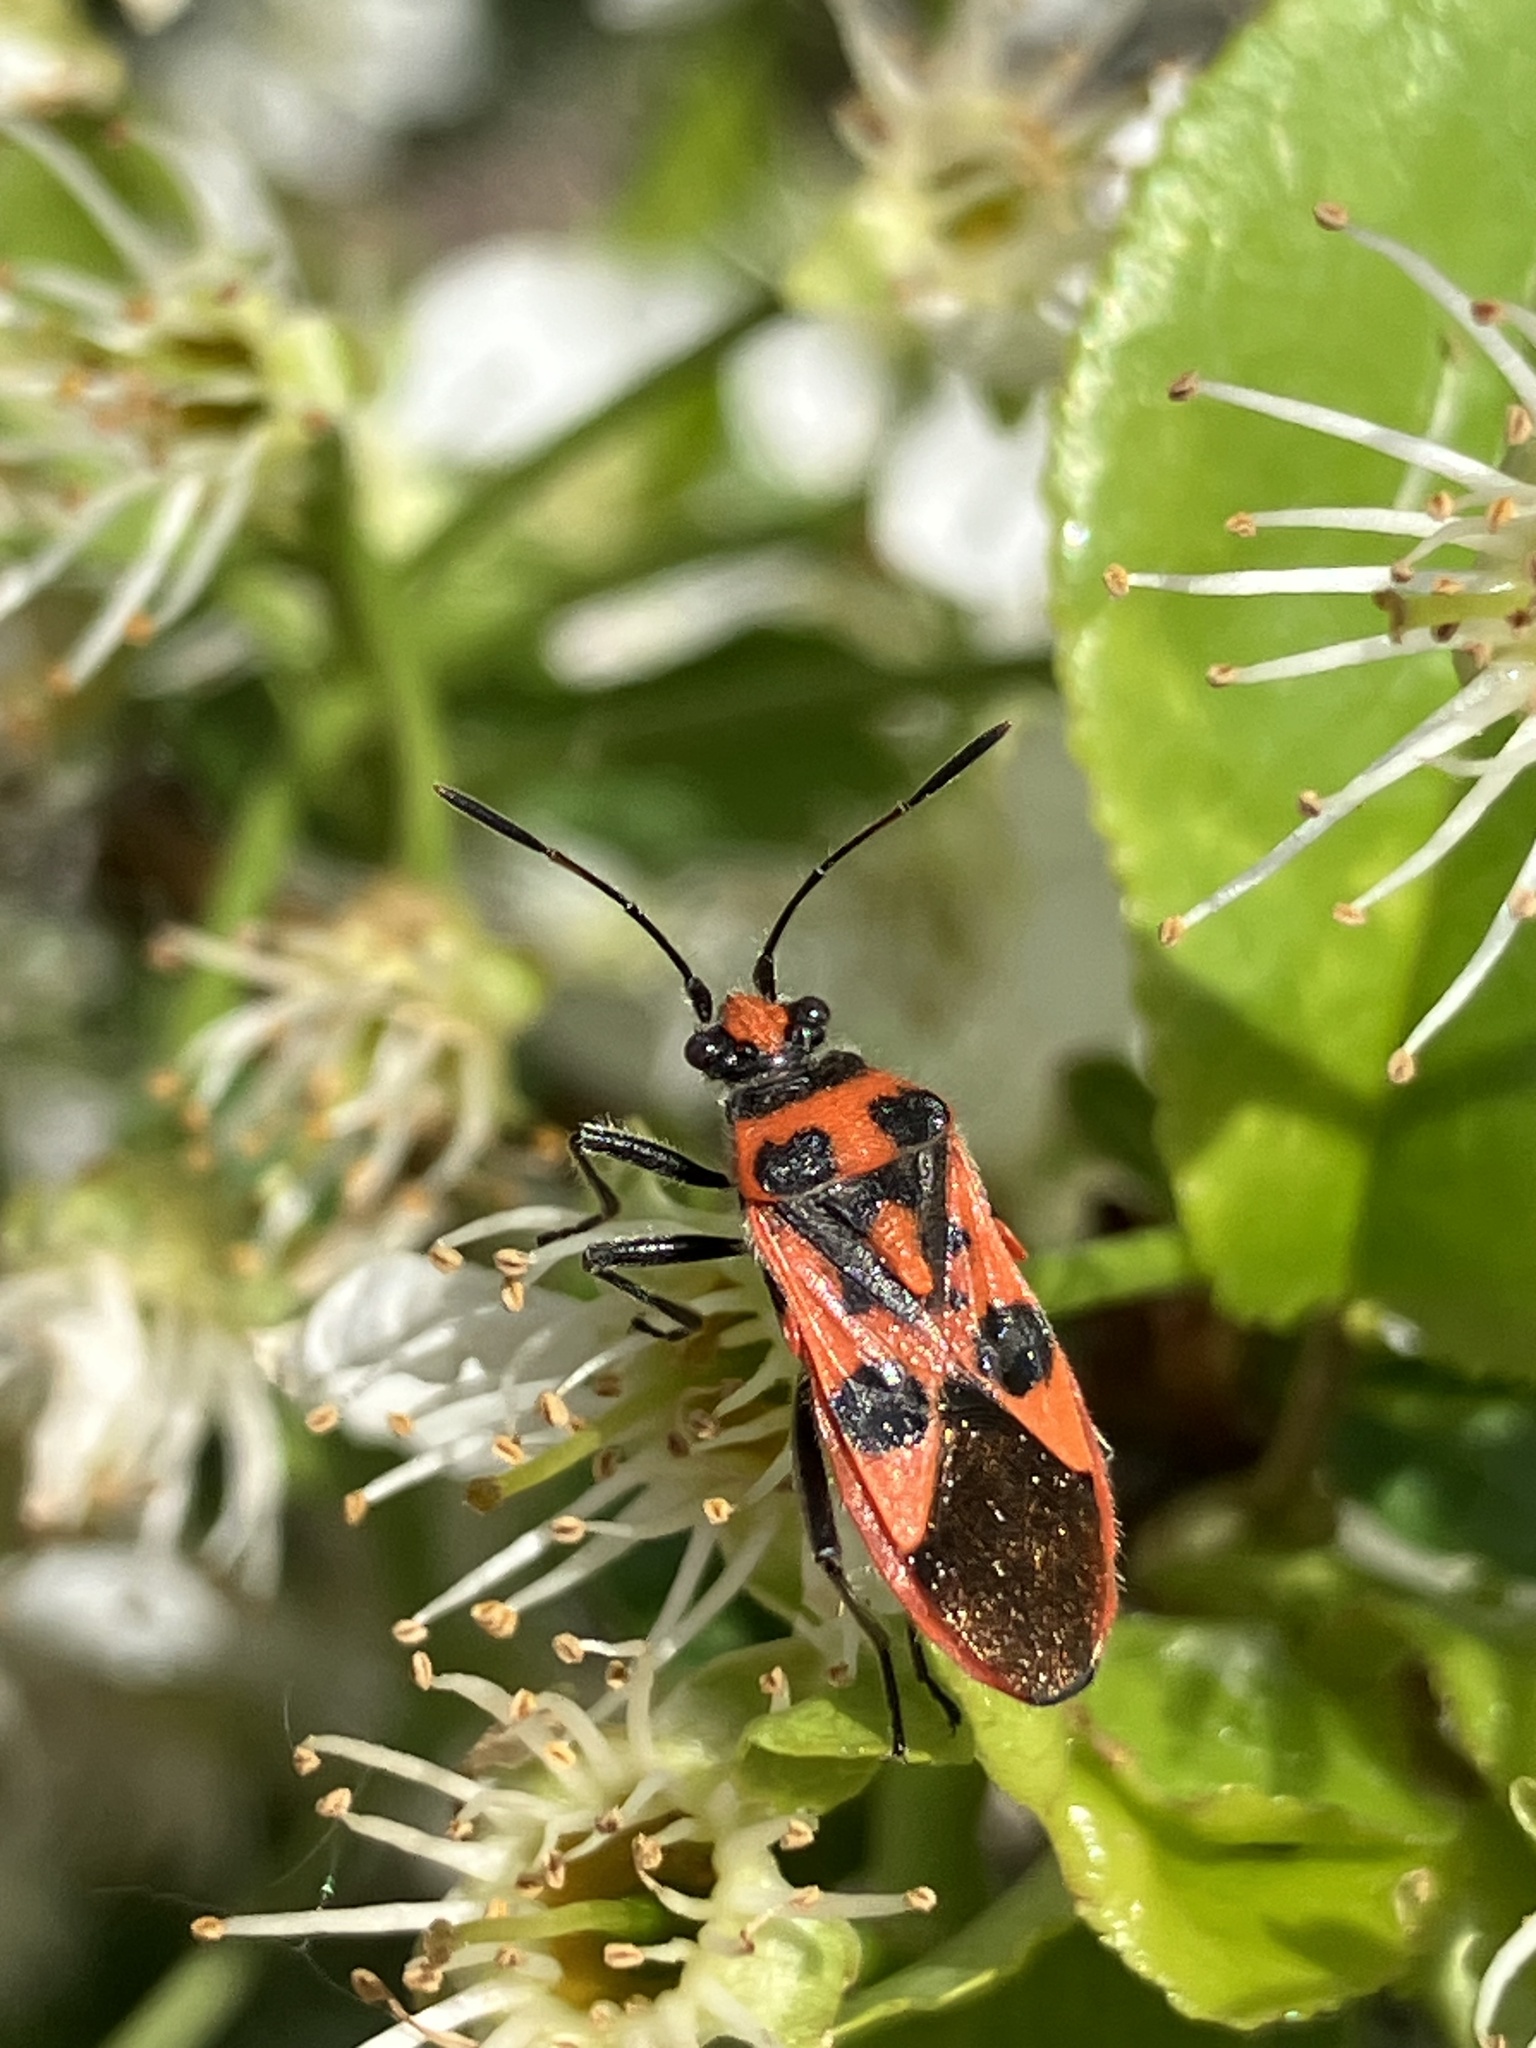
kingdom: Animalia
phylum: Arthropoda
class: Insecta
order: Hemiptera
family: Rhopalidae
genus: Corizus
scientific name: Corizus hyoscyami
